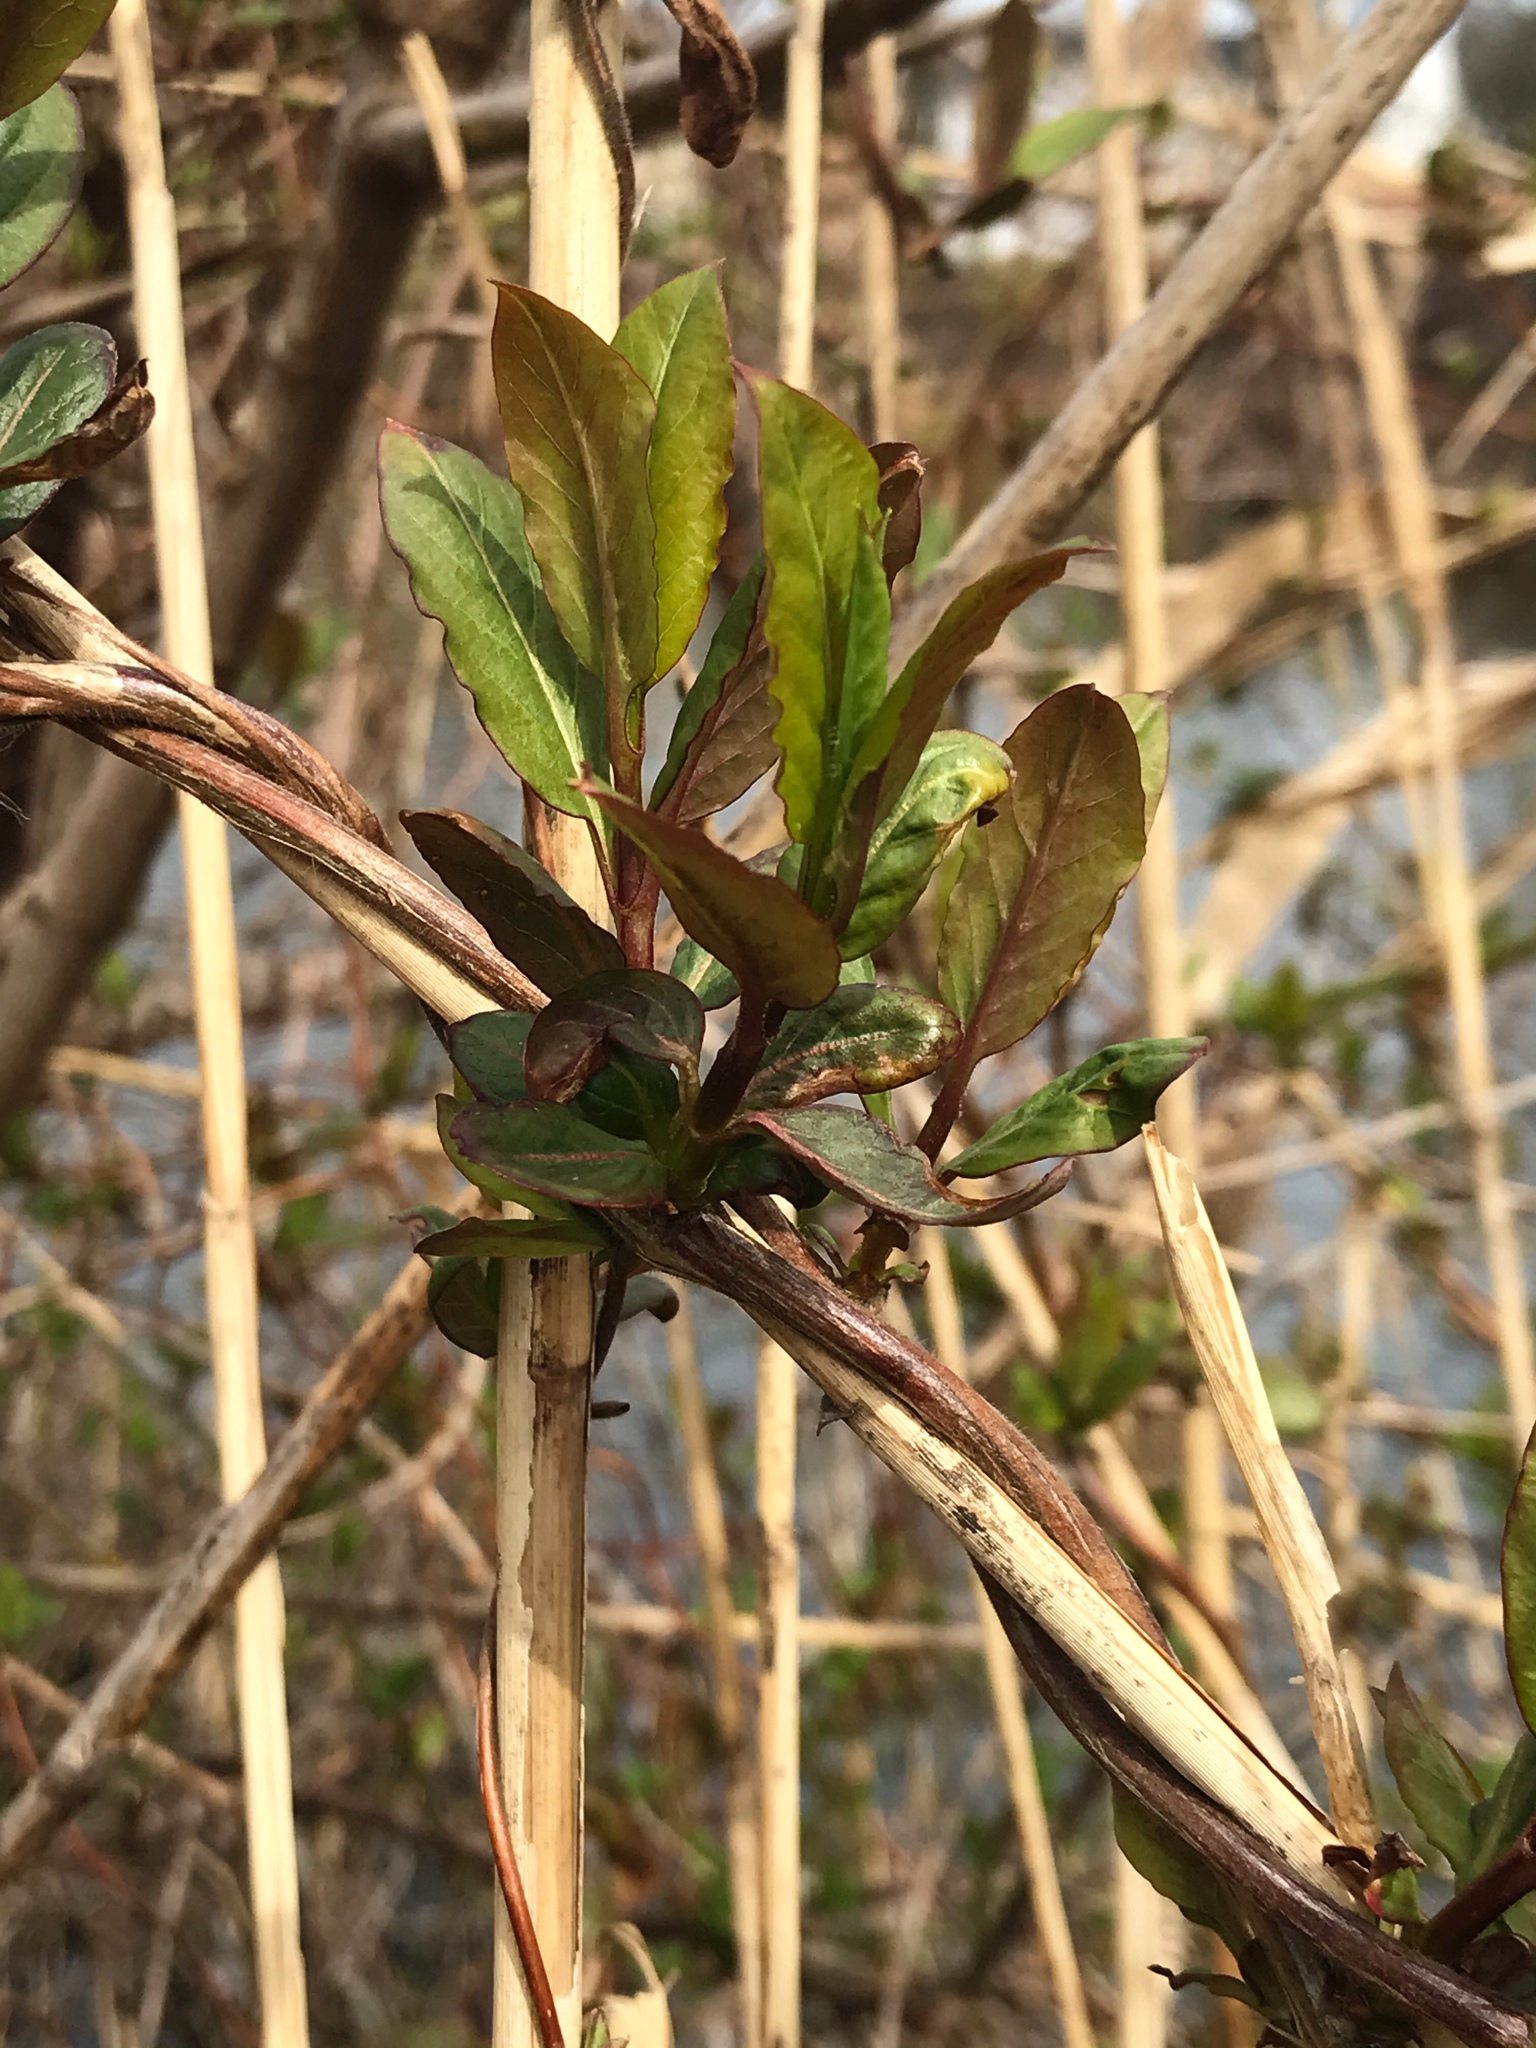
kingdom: Plantae
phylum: Tracheophyta
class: Magnoliopsida
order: Dipsacales
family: Caprifoliaceae
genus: Lonicera
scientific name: Lonicera japonica
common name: Japanese honeysuckle
